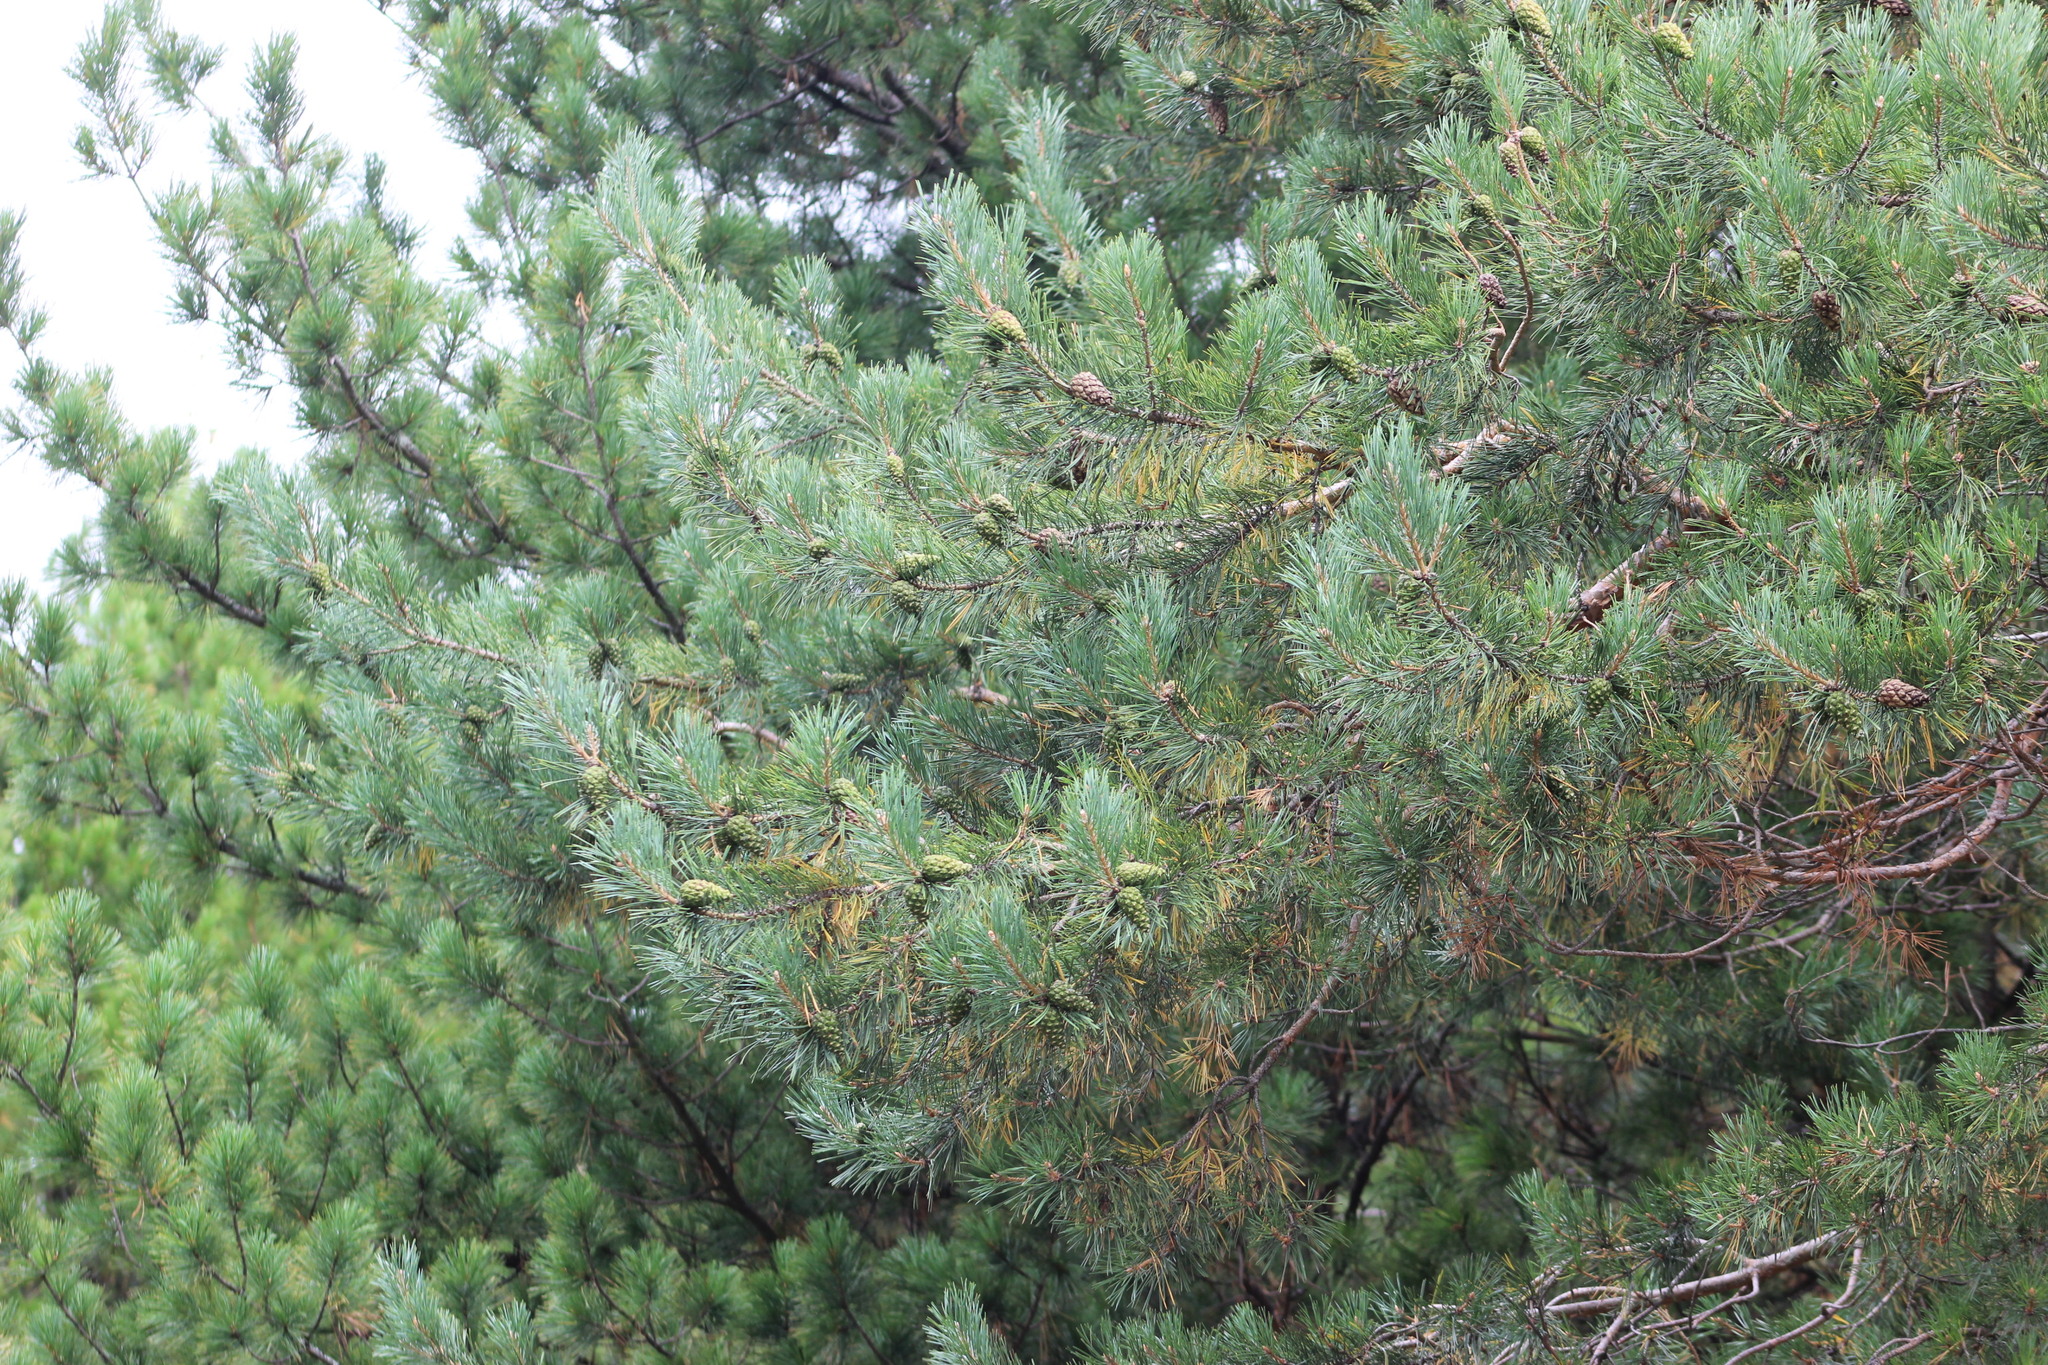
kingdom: Plantae
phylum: Tracheophyta
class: Pinopsida
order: Pinales
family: Pinaceae
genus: Pinus
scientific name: Pinus sylvestris
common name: Scots pine
